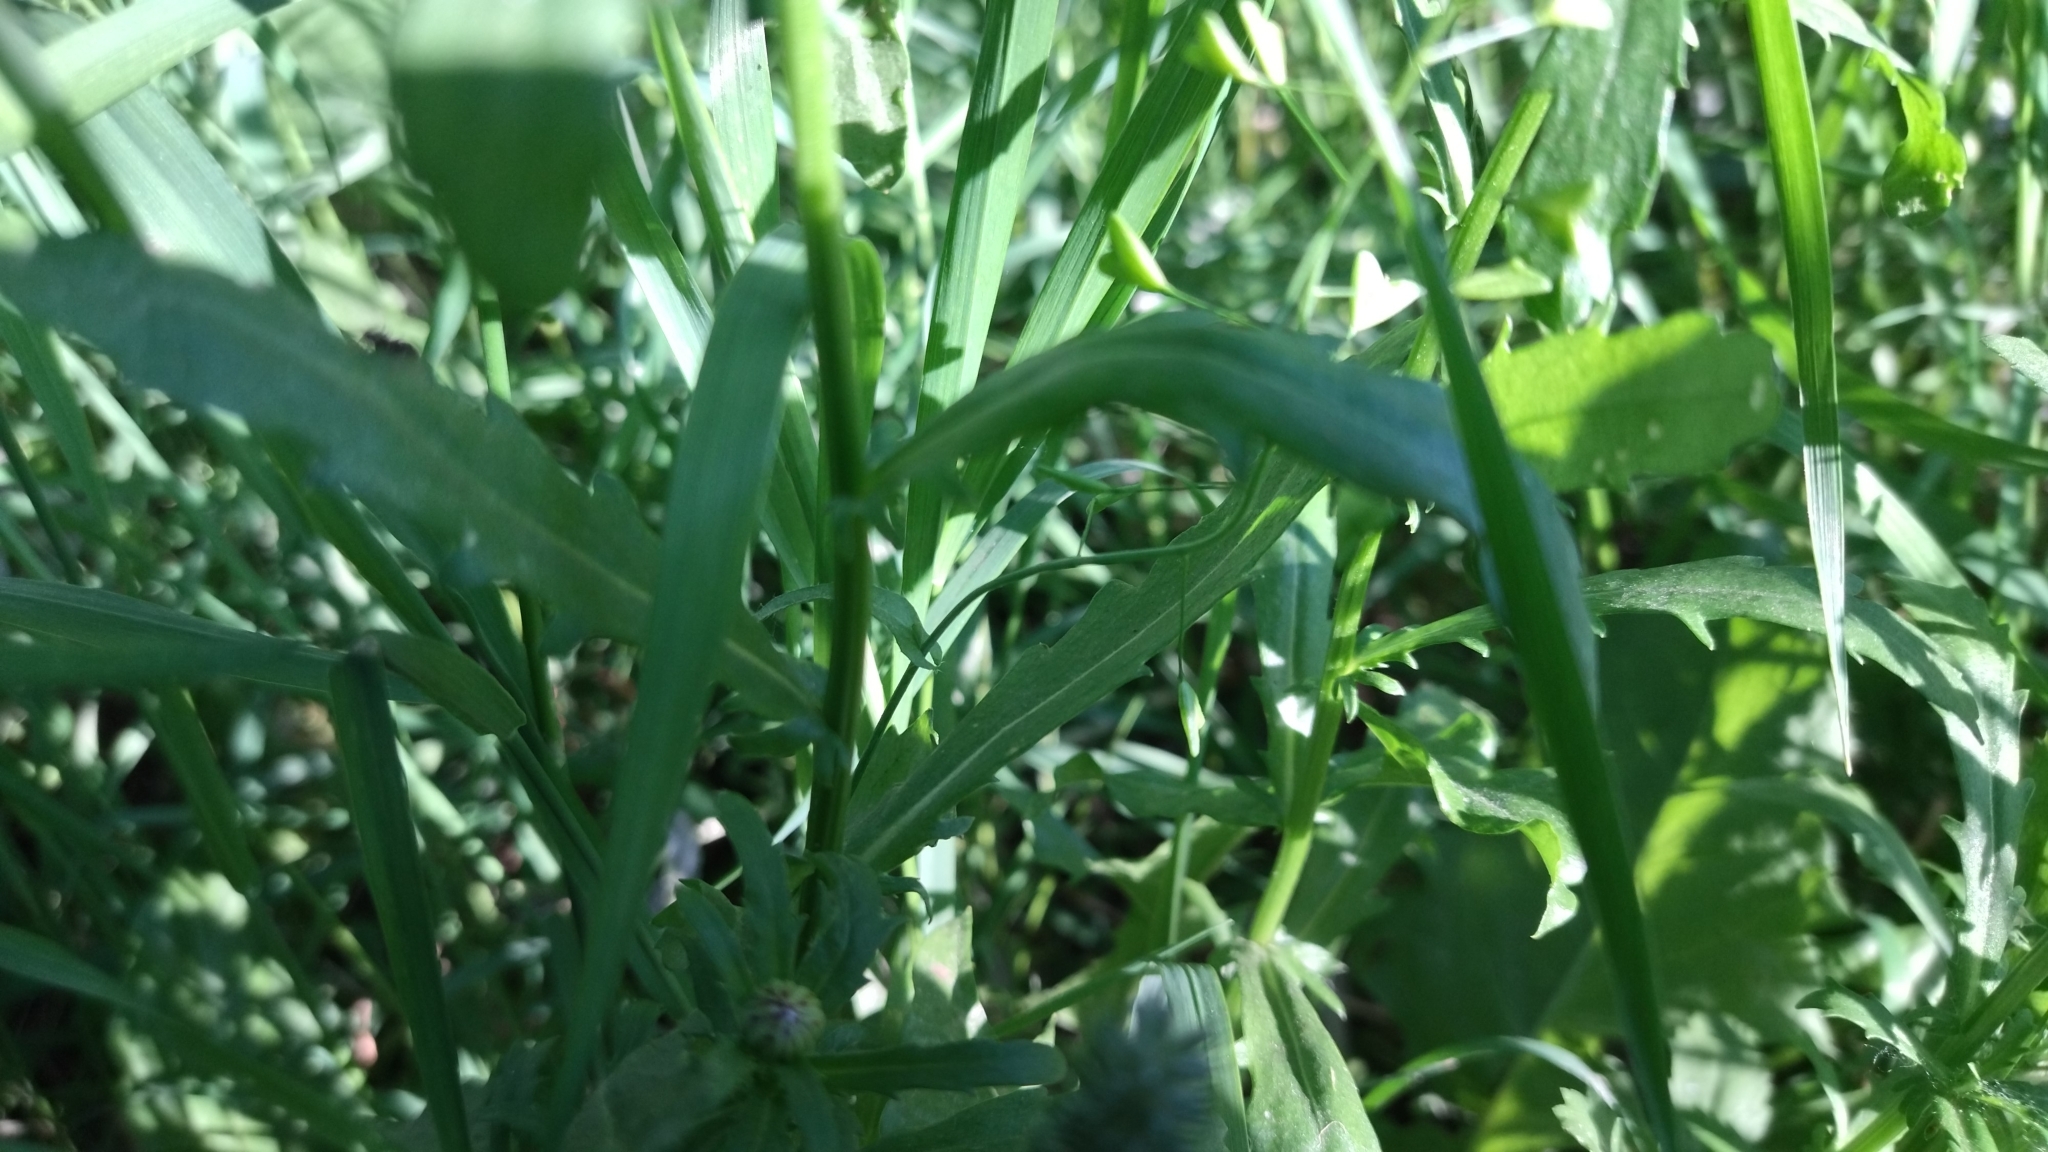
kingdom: Plantae
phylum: Tracheophyta
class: Magnoliopsida
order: Asterales
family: Asteraceae
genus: Leucanthemum
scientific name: Leucanthemum vulgare
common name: Oxeye daisy
